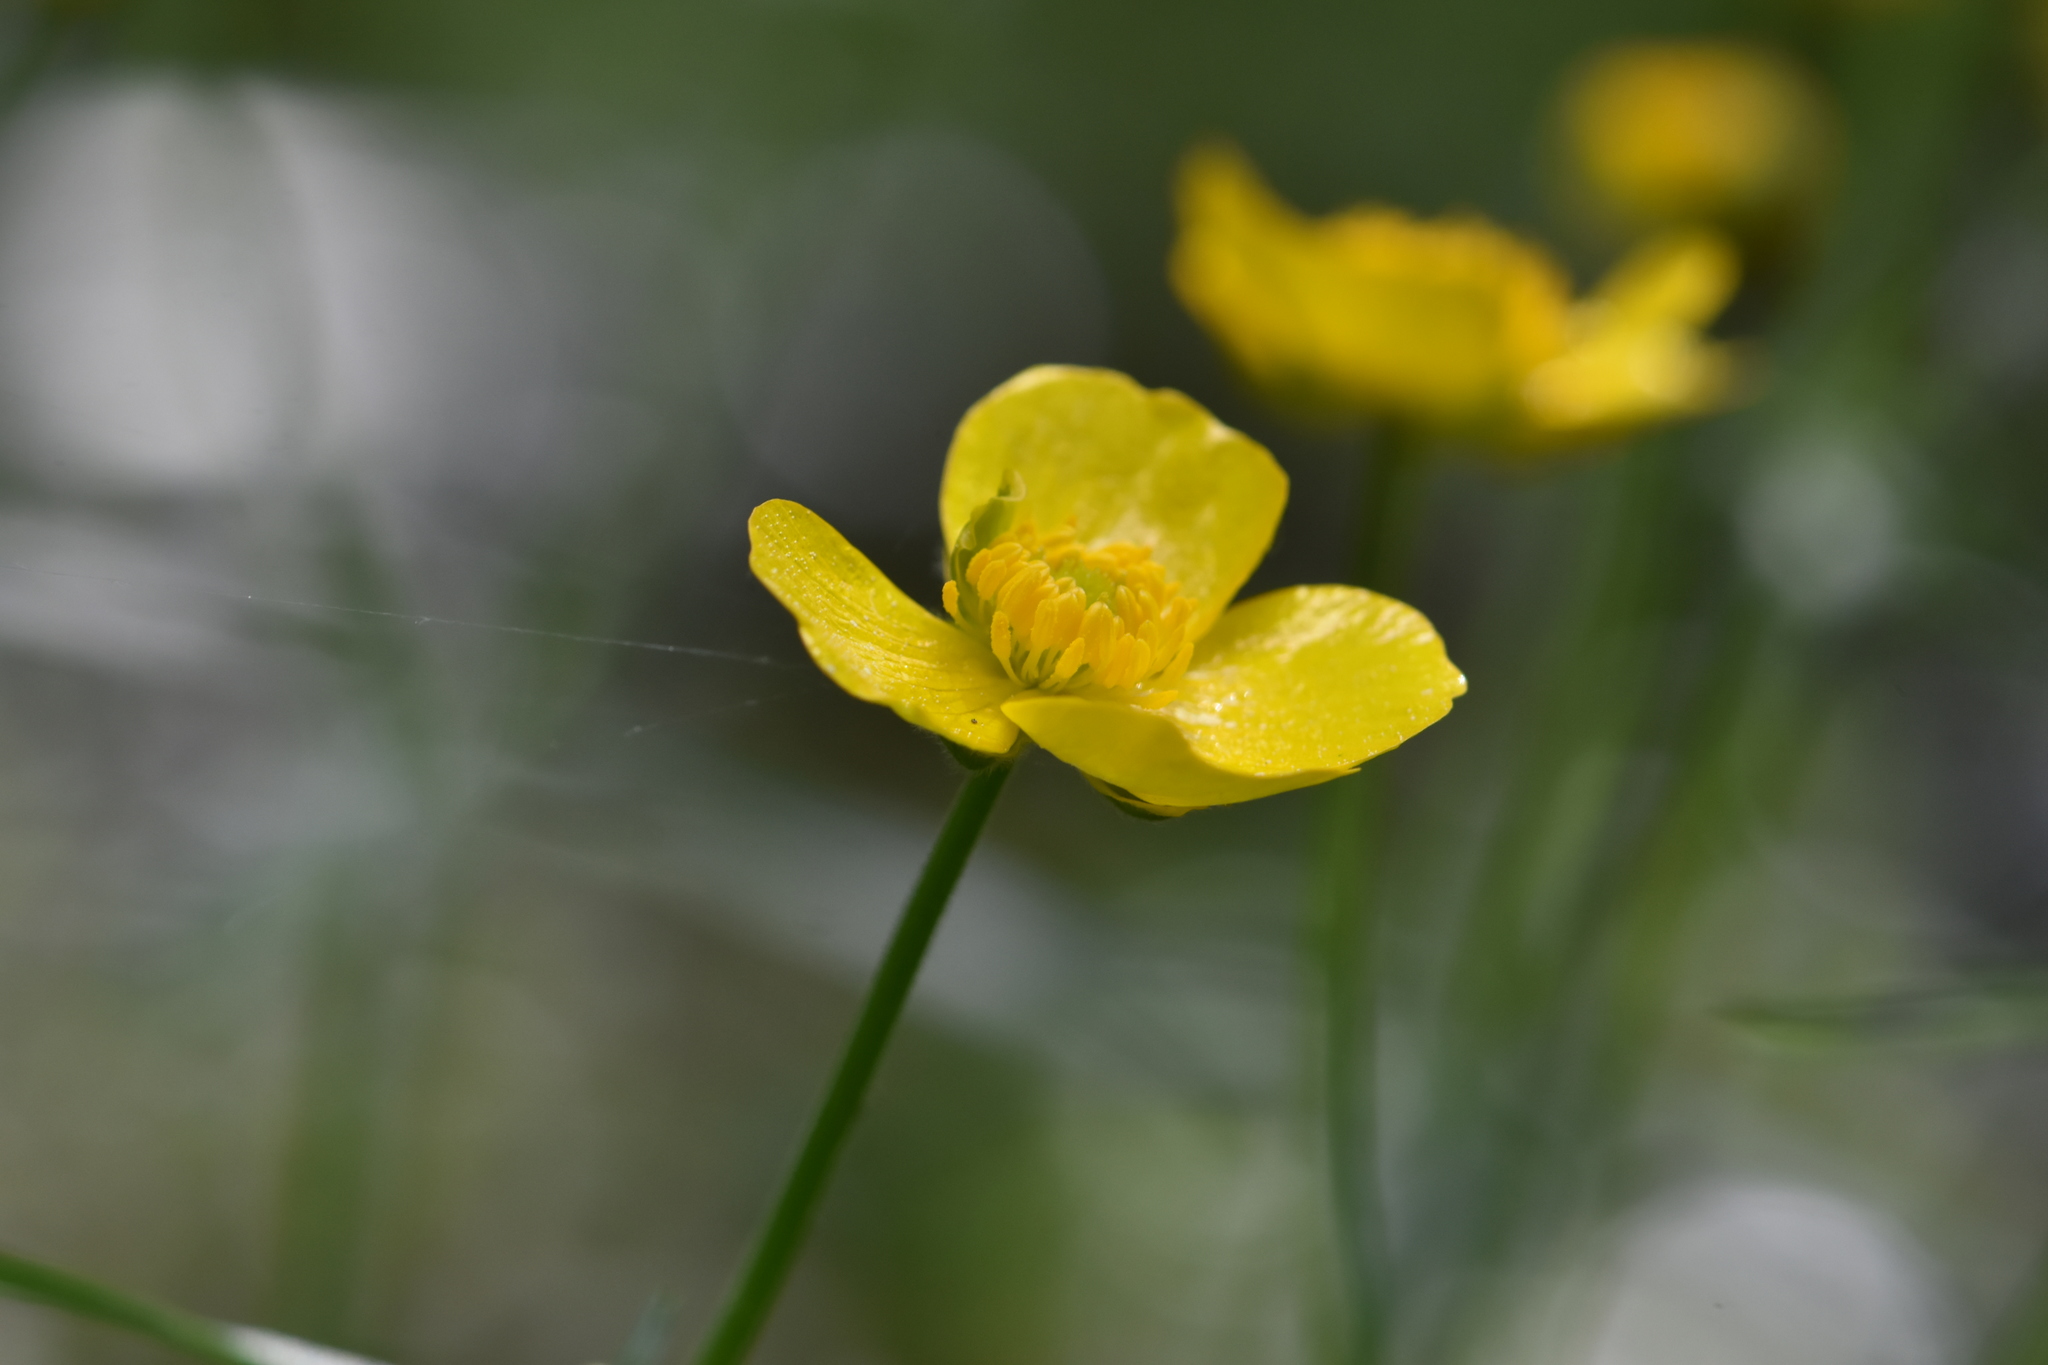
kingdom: Plantae
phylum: Tracheophyta
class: Magnoliopsida
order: Ranunculales
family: Ranunculaceae
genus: Ranunculus
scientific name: Ranunculus cassubicus
